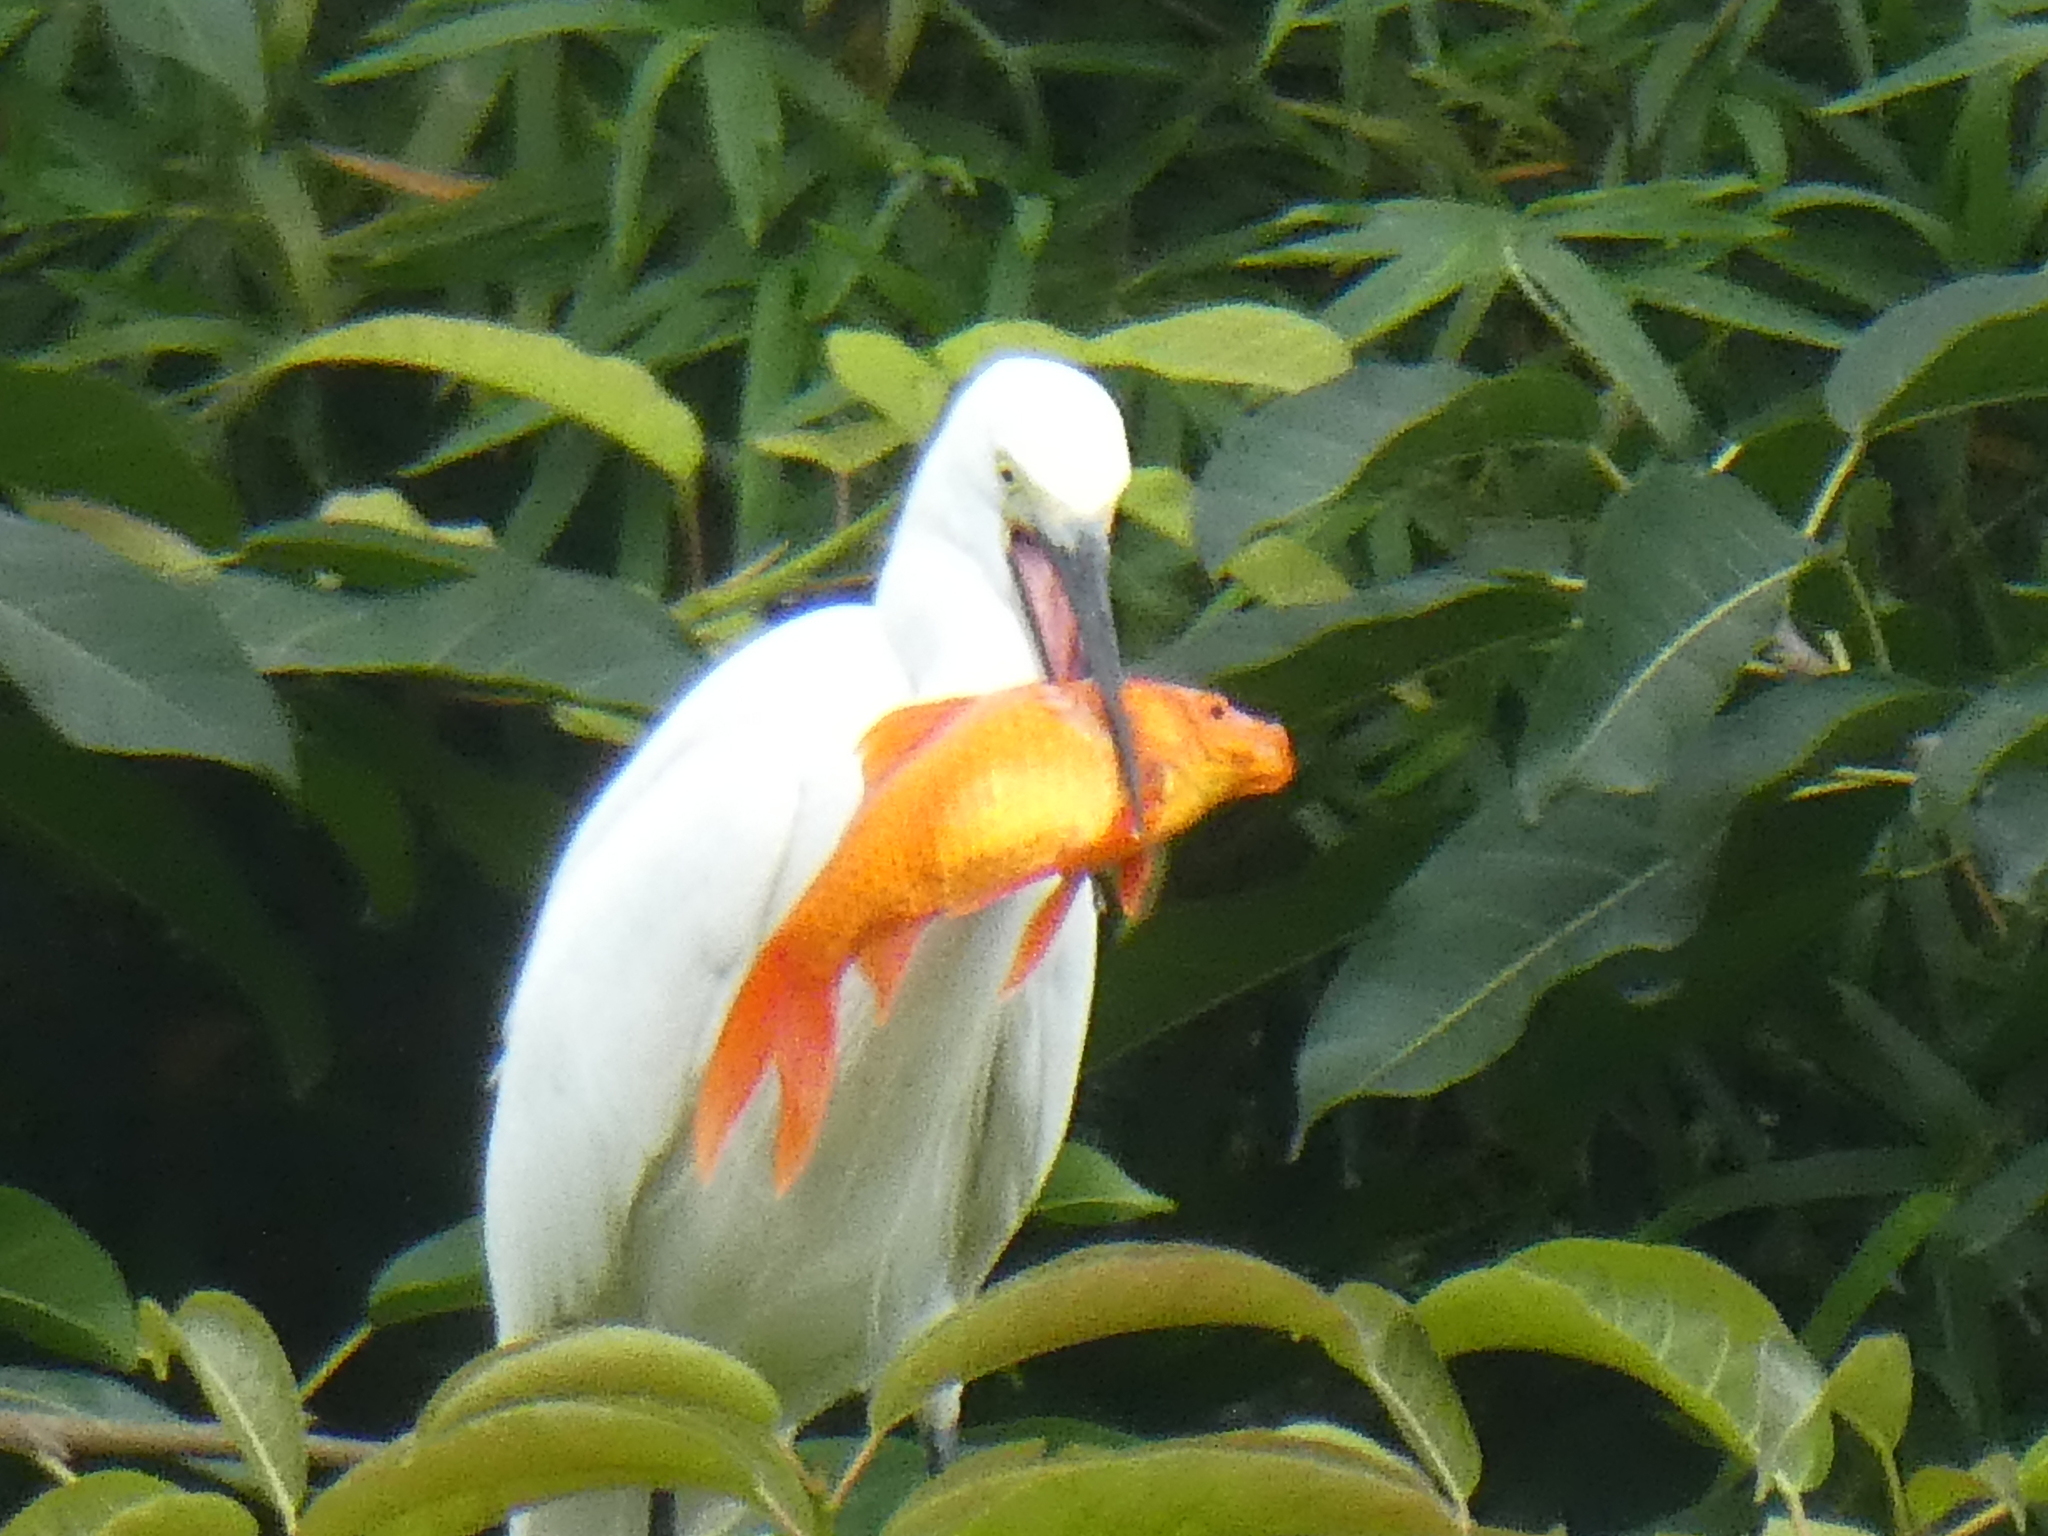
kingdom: Animalia
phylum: Chordata
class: Aves
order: Pelecaniformes
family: Ardeidae
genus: Egretta
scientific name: Egretta garzetta
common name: Little egret
